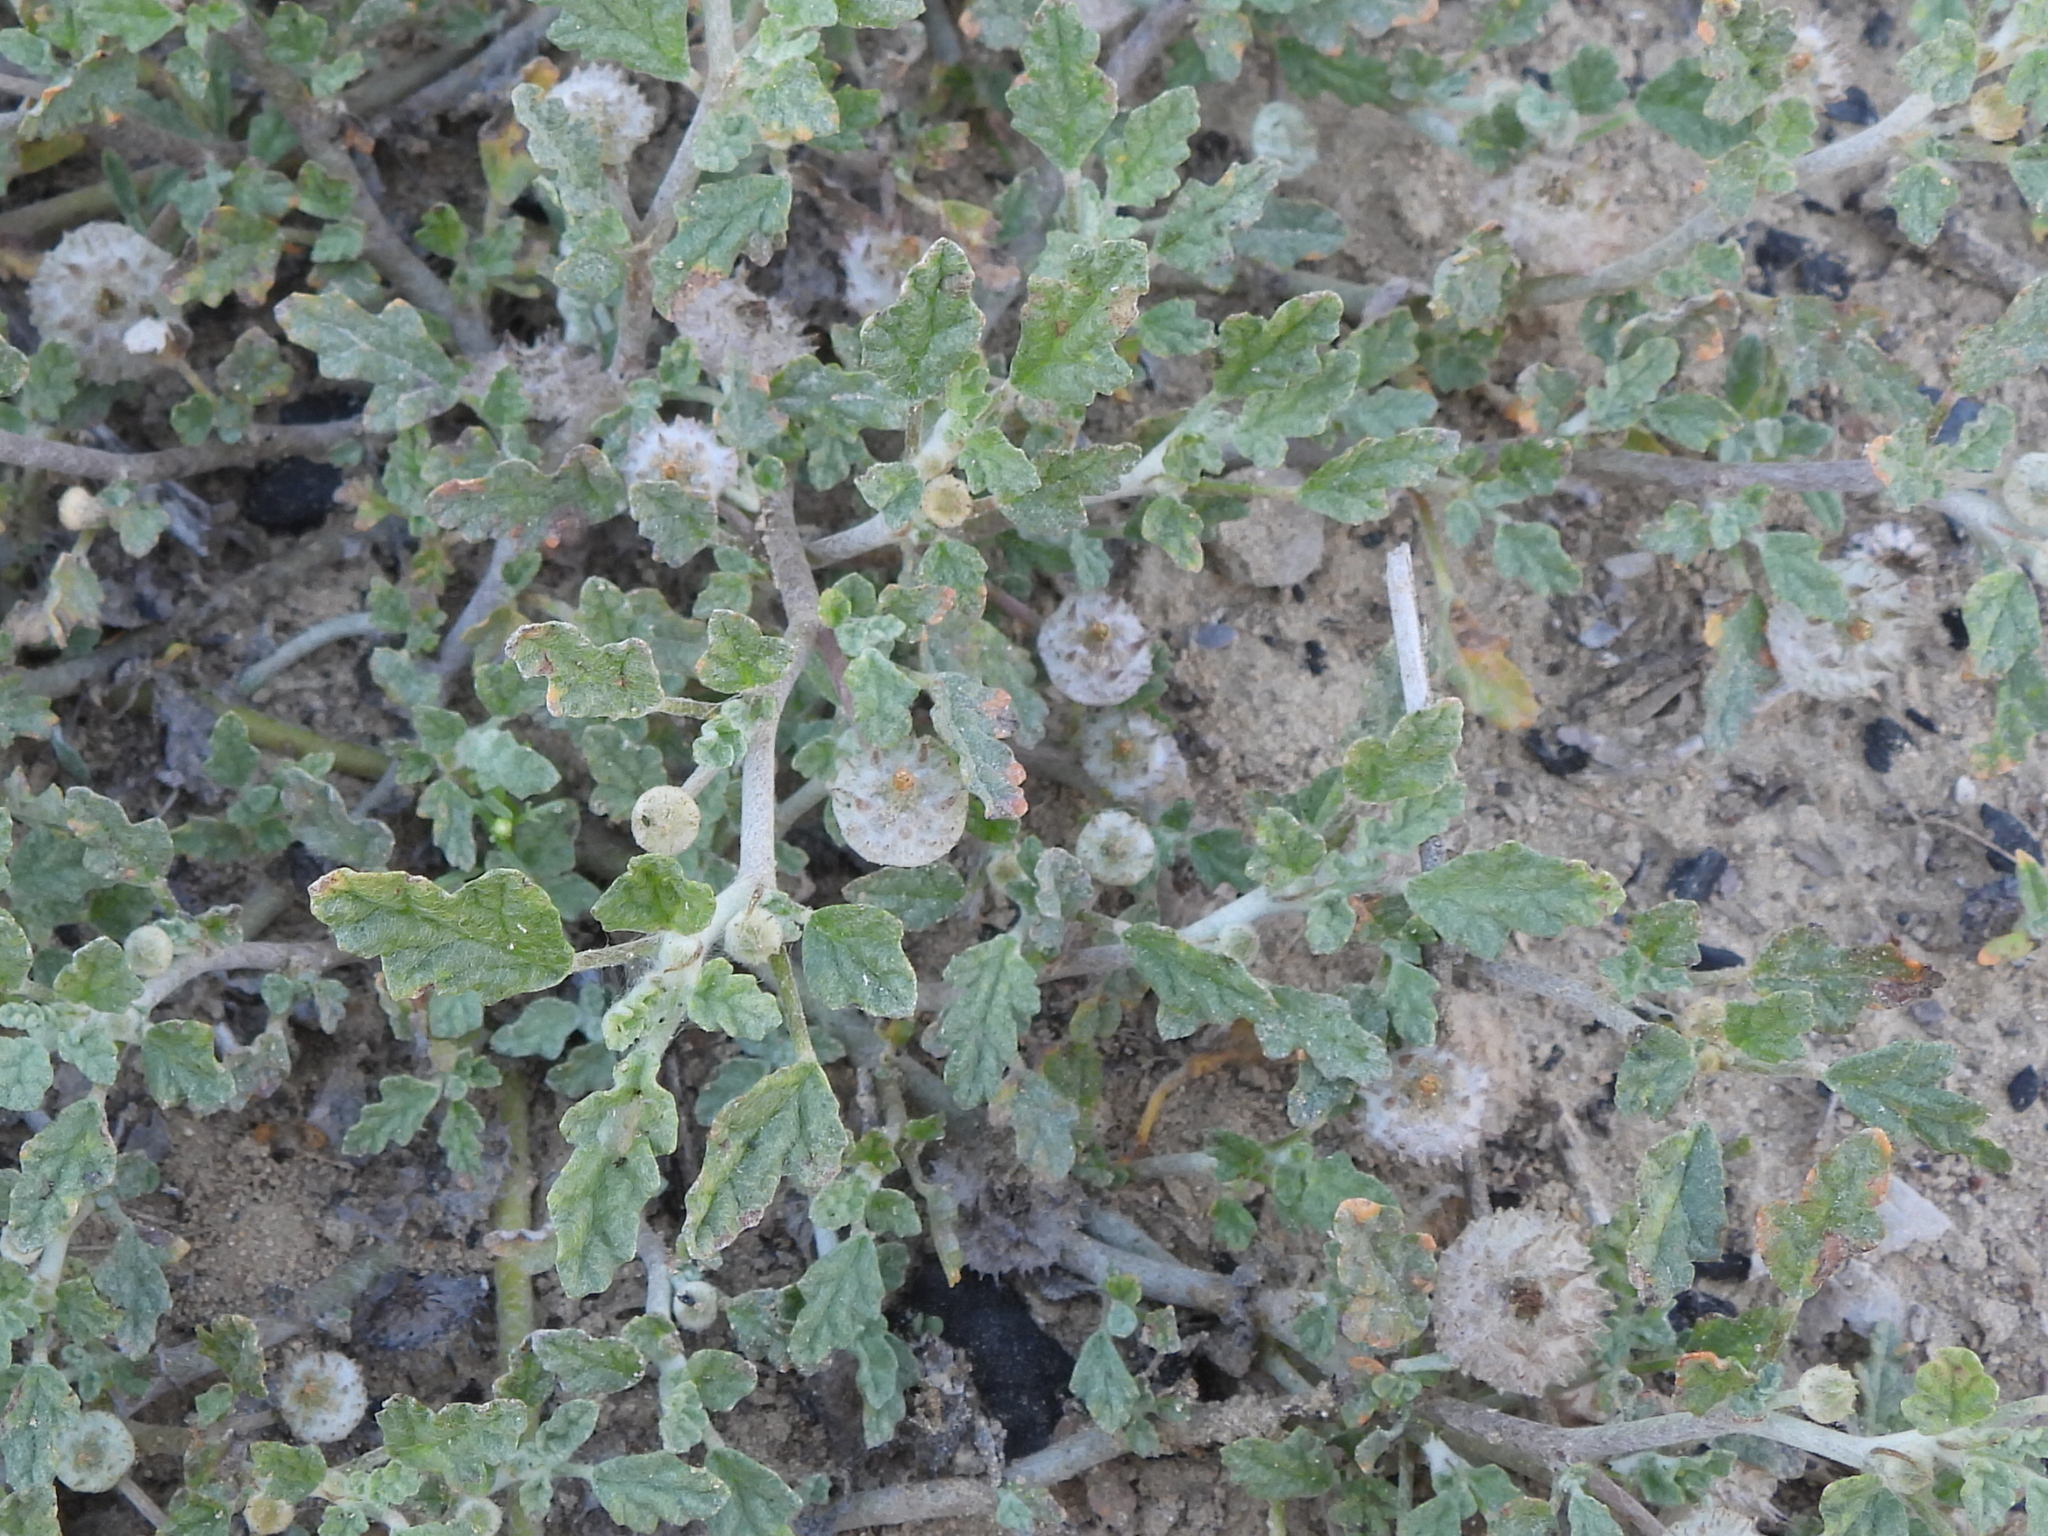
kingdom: Plantae
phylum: Tracheophyta
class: Magnoliopsida
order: Malvales
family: Neuradaceae
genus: Neurada
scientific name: Neurada procumbens
